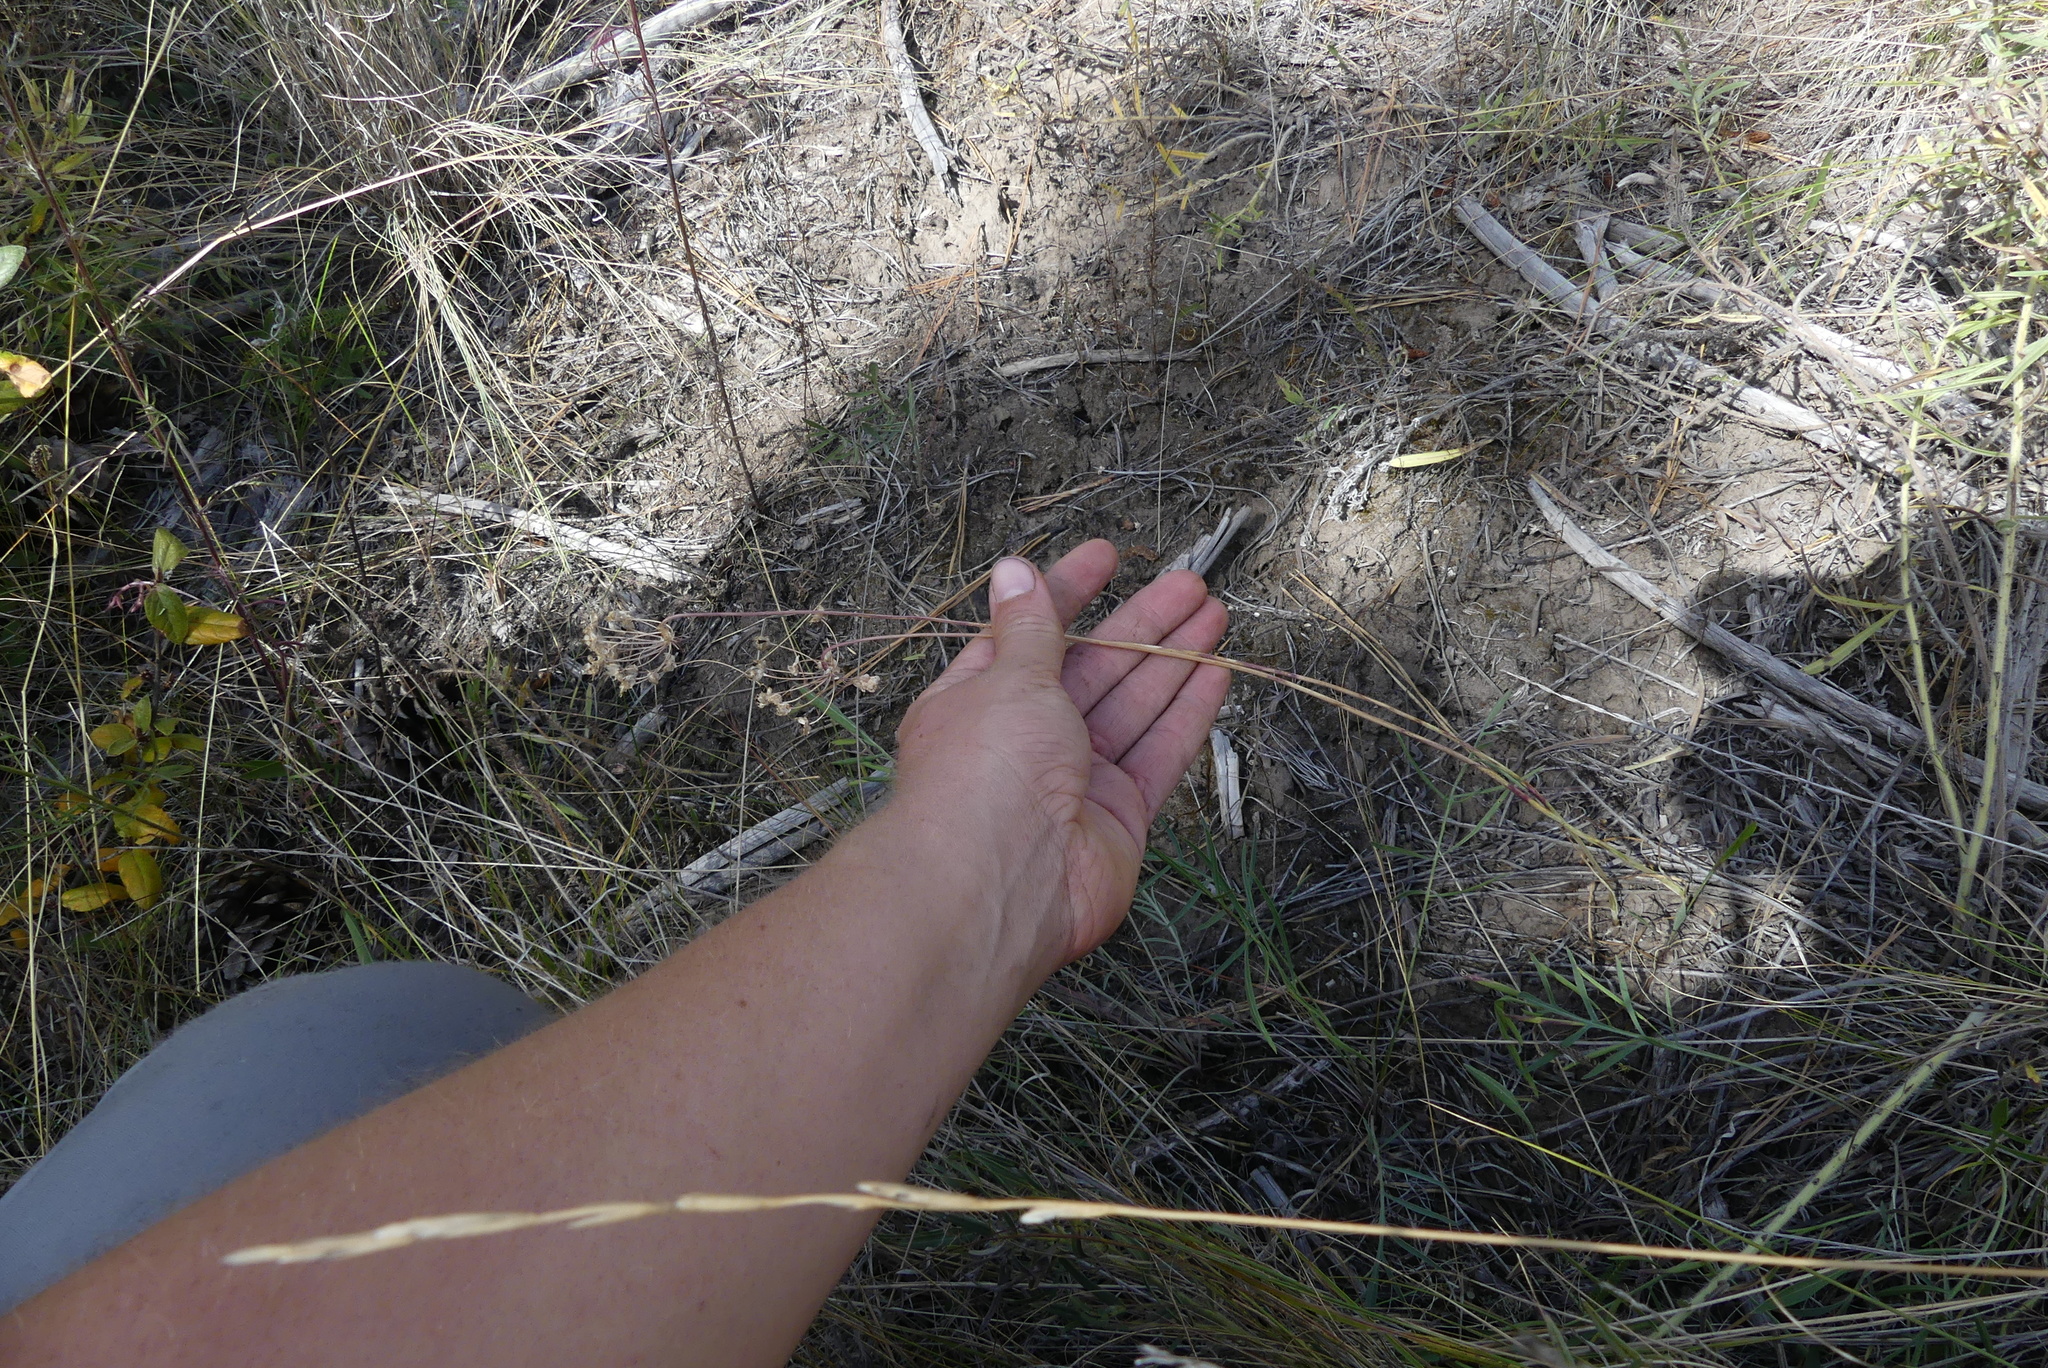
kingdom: Plantae
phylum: Tracheophyta
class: Liliopsida
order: Asparagales
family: Amaryllidaceae
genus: Allium
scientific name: Allium cernuum
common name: Nodding onion
